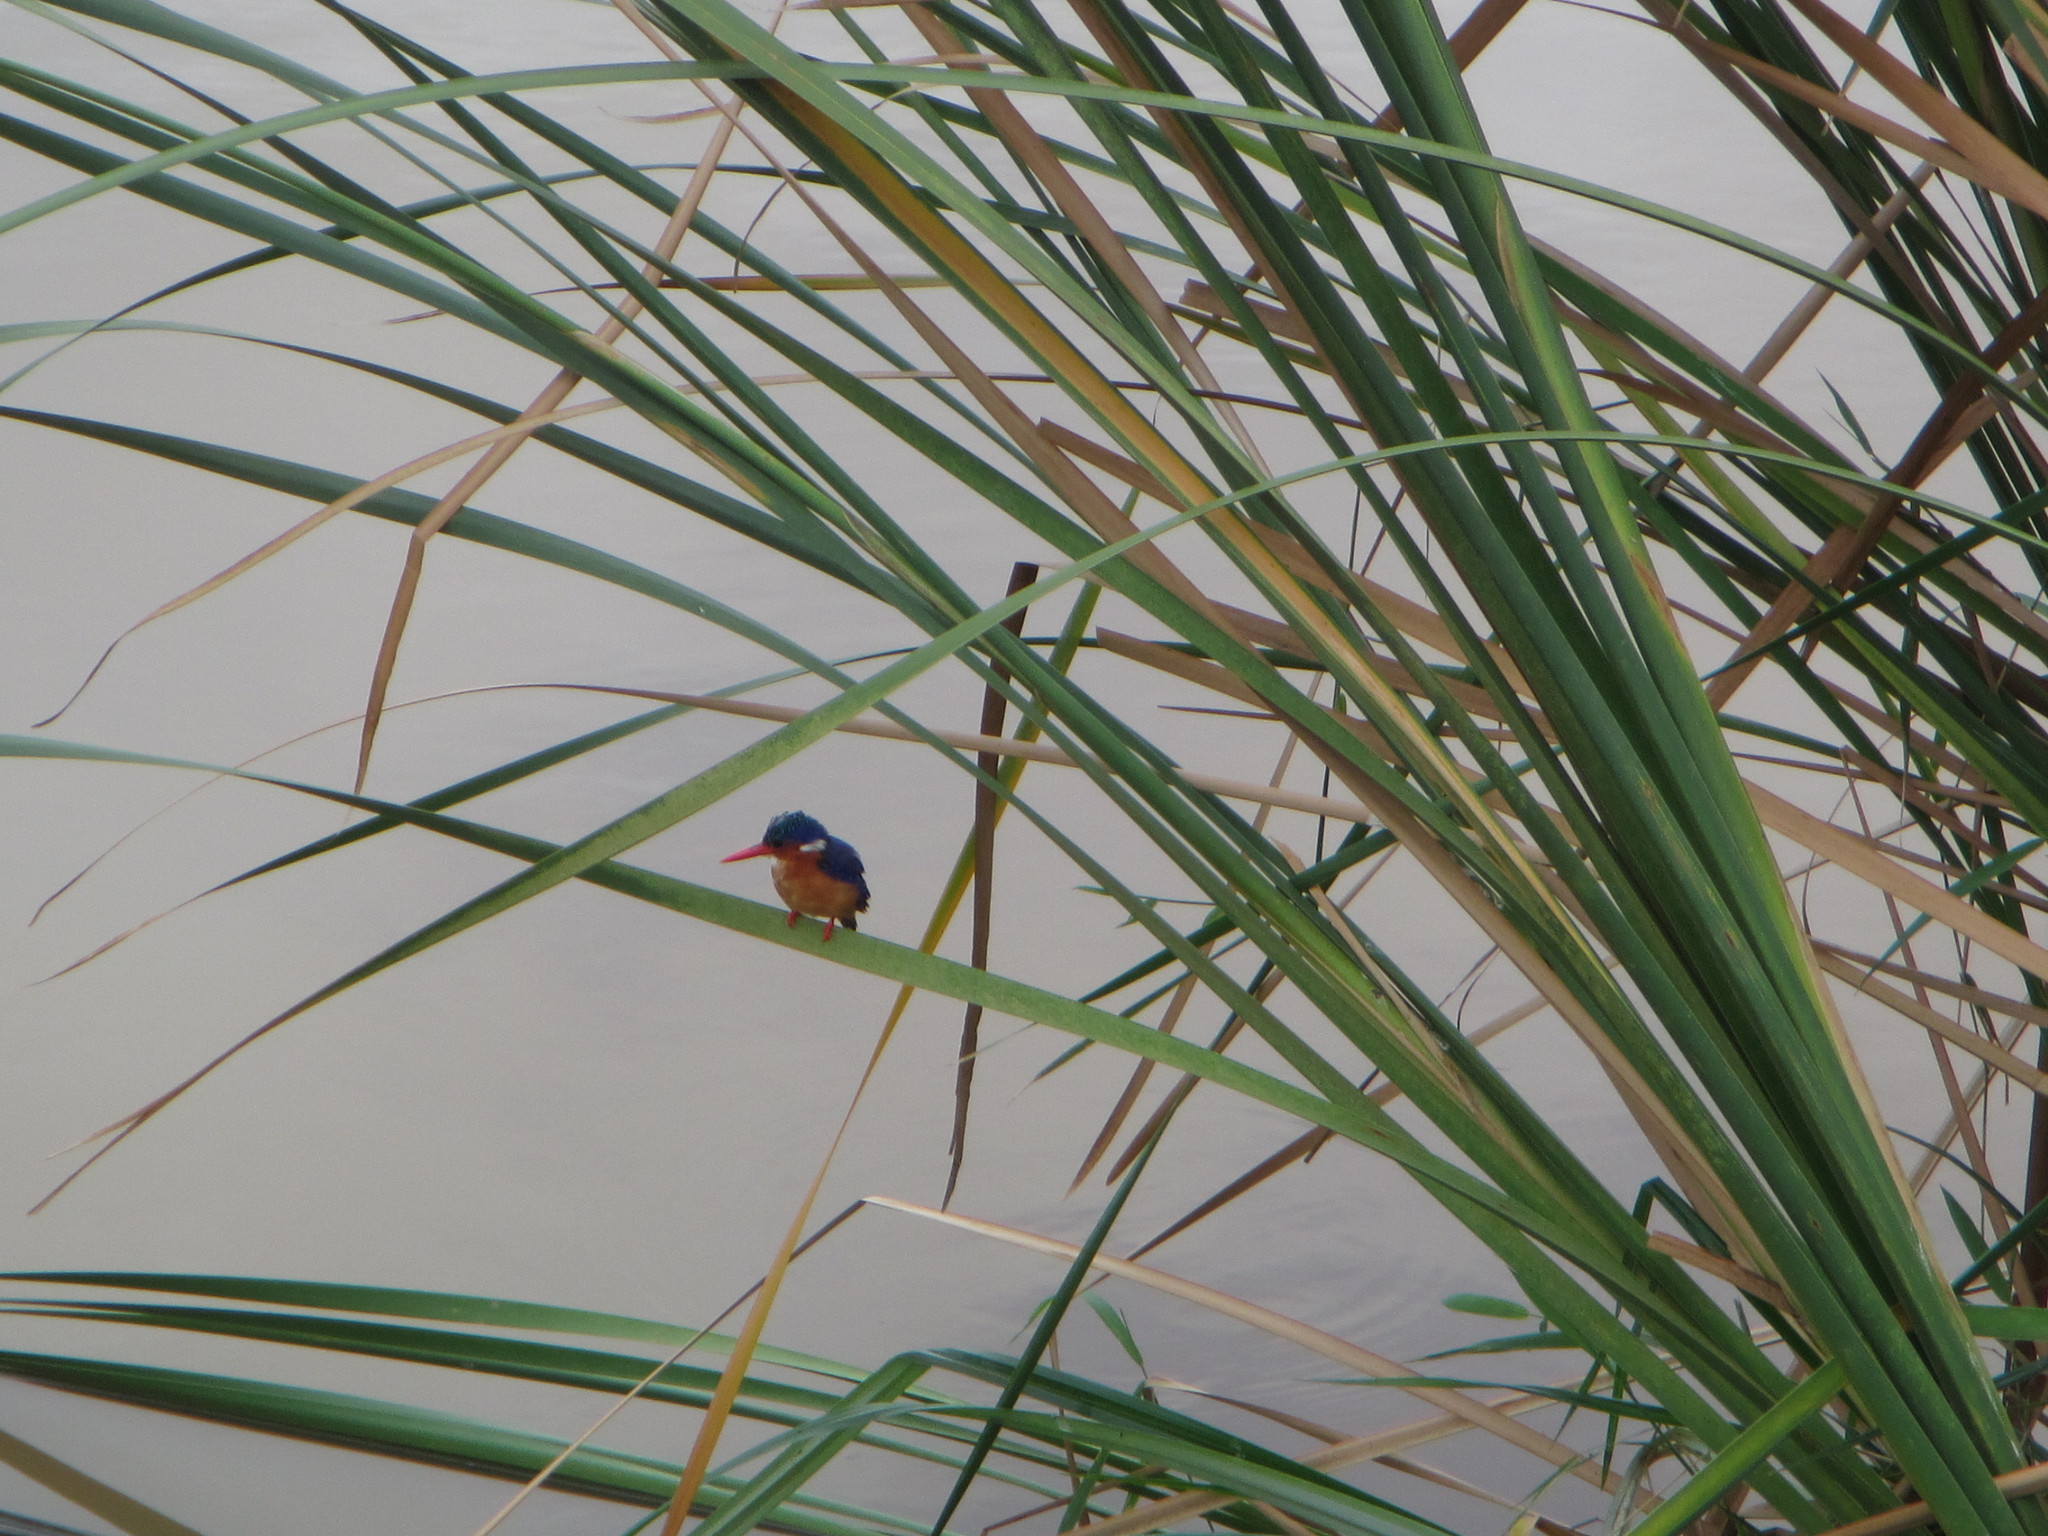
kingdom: Animalia
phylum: Chordata
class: Aves
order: Coraciiformes
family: Alcedinidae
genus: Corythornis
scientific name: Corythornis cristatus
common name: Malachite kingfisher
